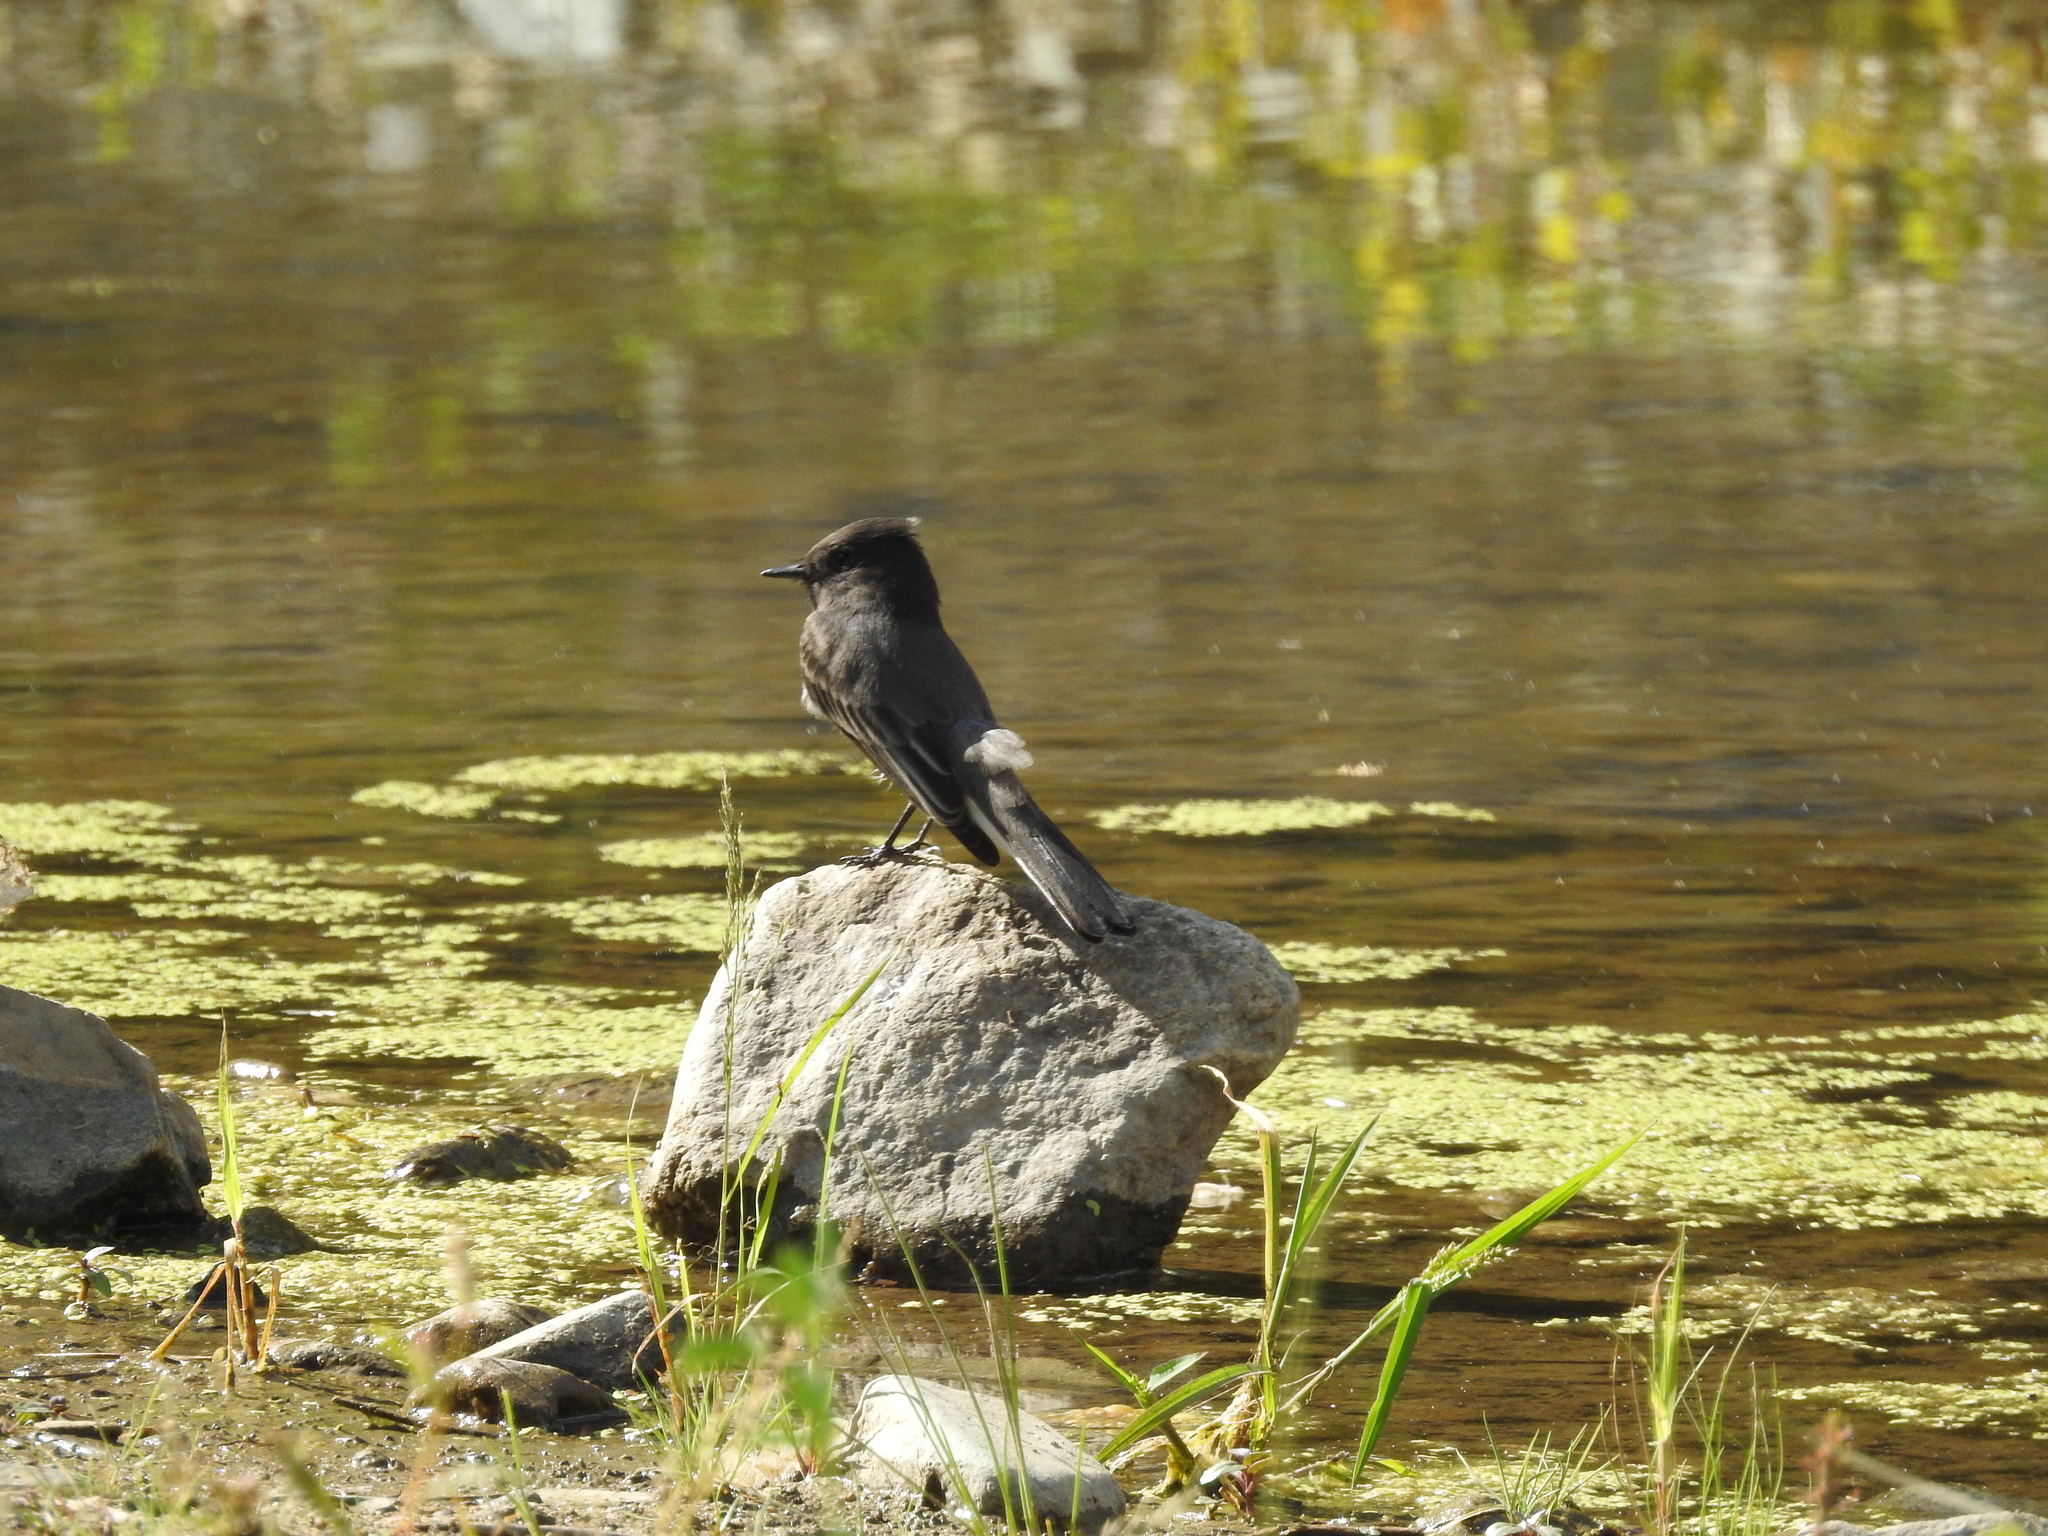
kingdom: Animalia
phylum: Chordata
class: Aves
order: Passeriformes
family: Tyrannidae
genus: Sayornis
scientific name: Sayornis nigricans
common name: Black phoebe
